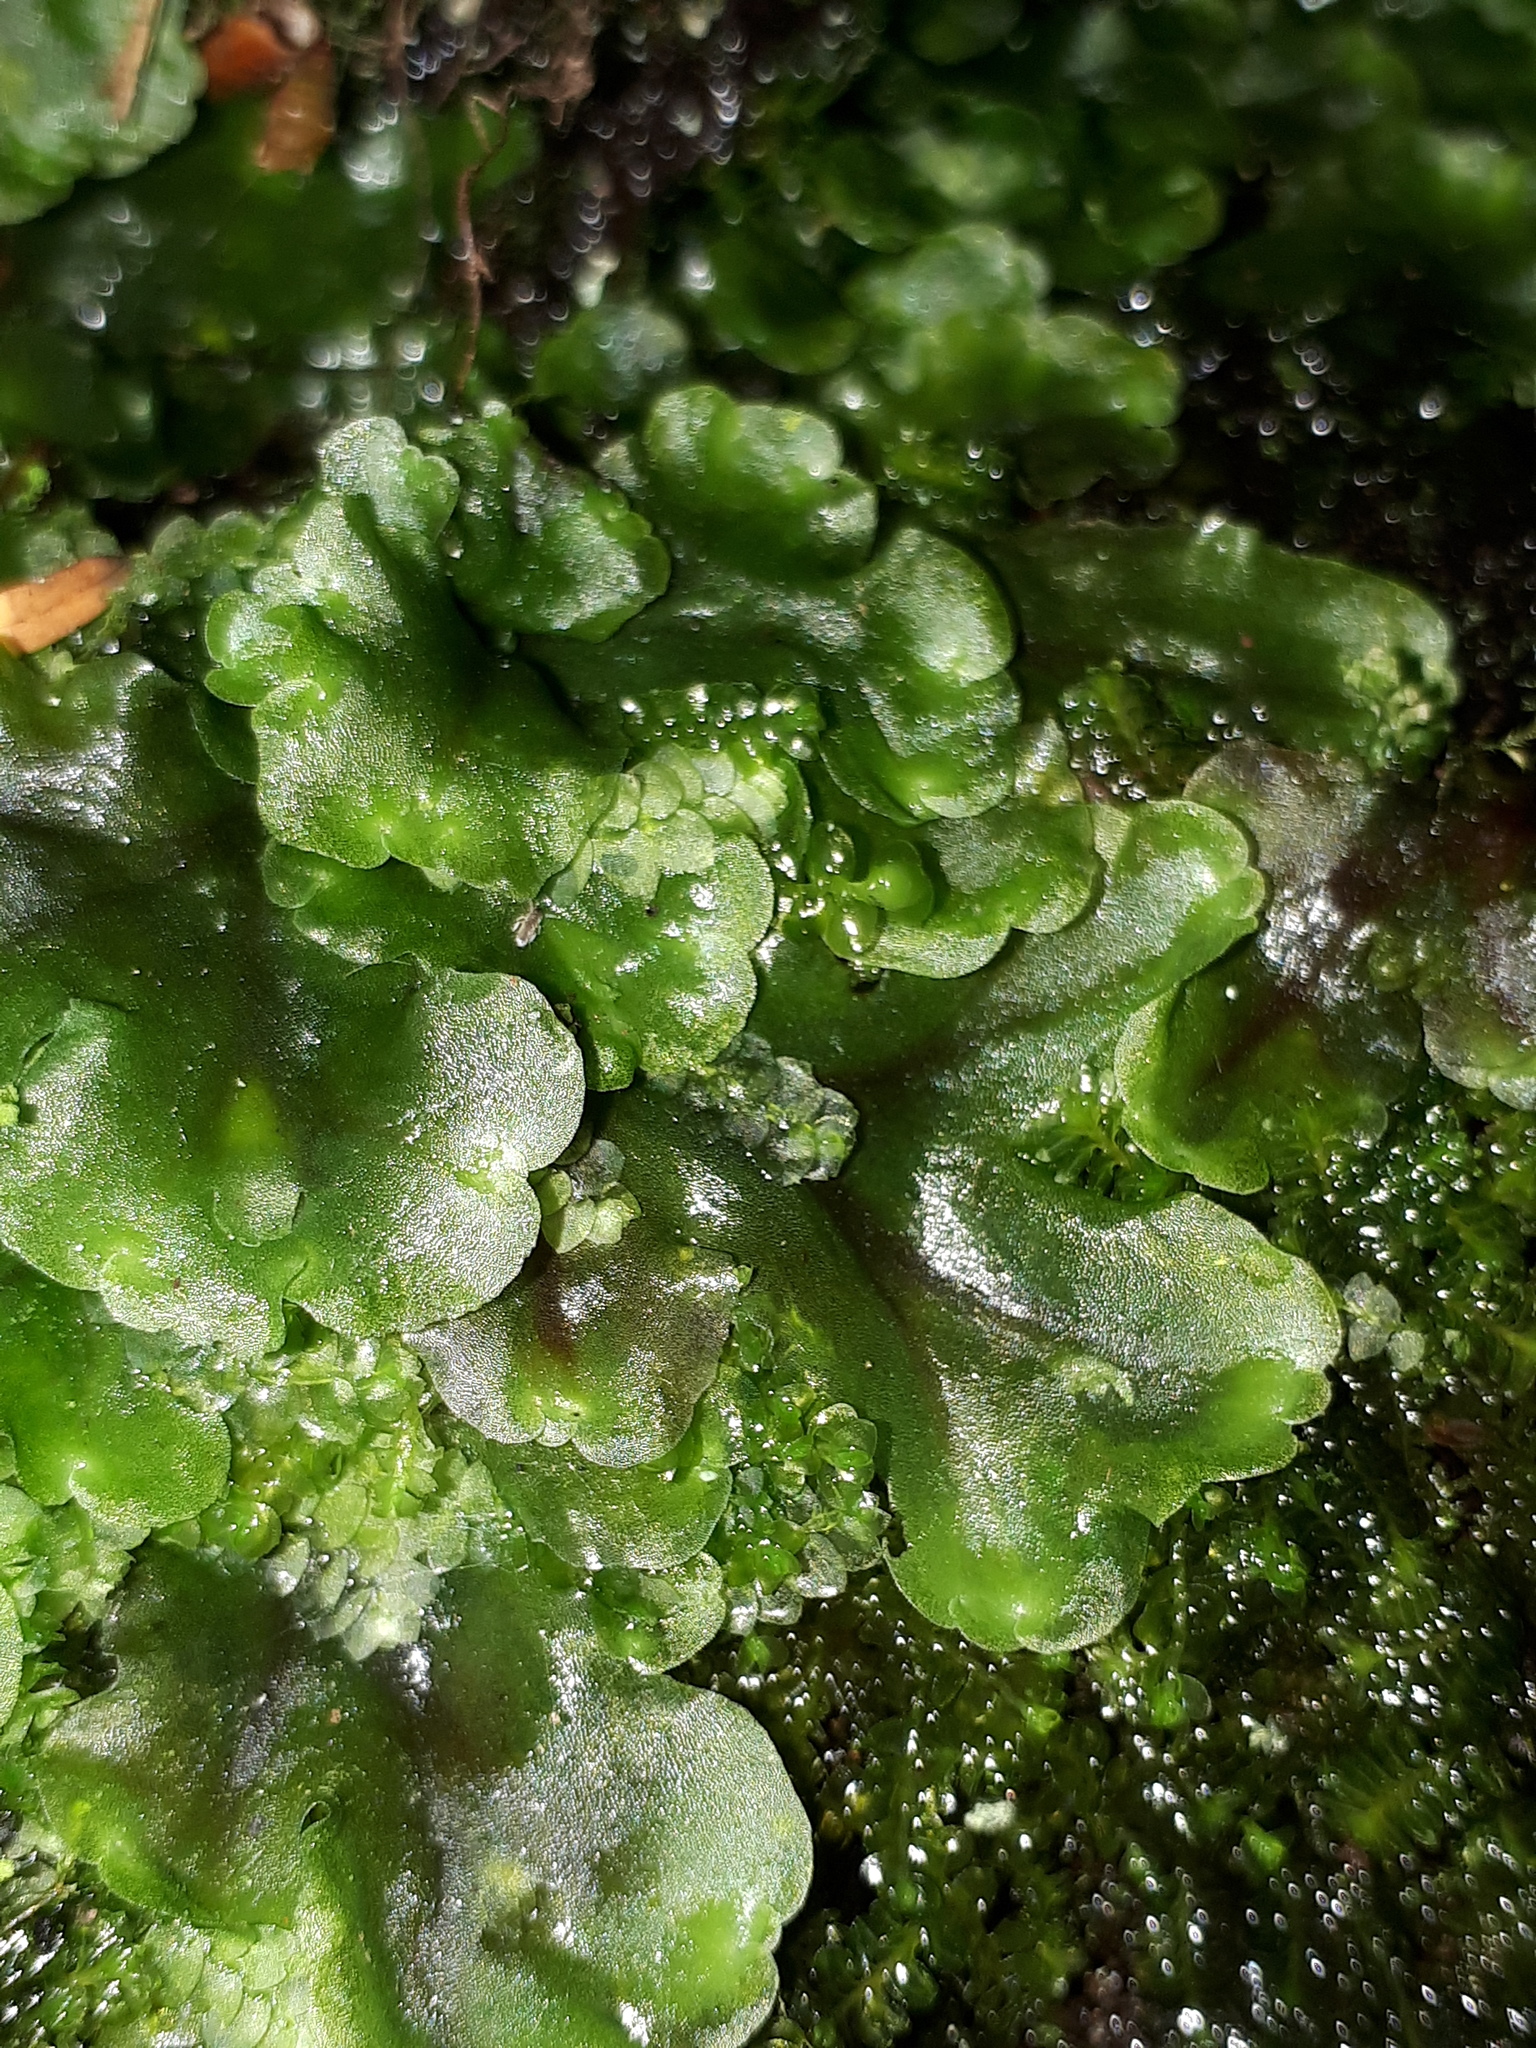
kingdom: Plantae
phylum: Marchantiophyta
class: Jungermanniopsida
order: Pelliales
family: Pelliaceae
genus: Pellia
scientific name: Pellia epiphylla
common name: Common pellia
